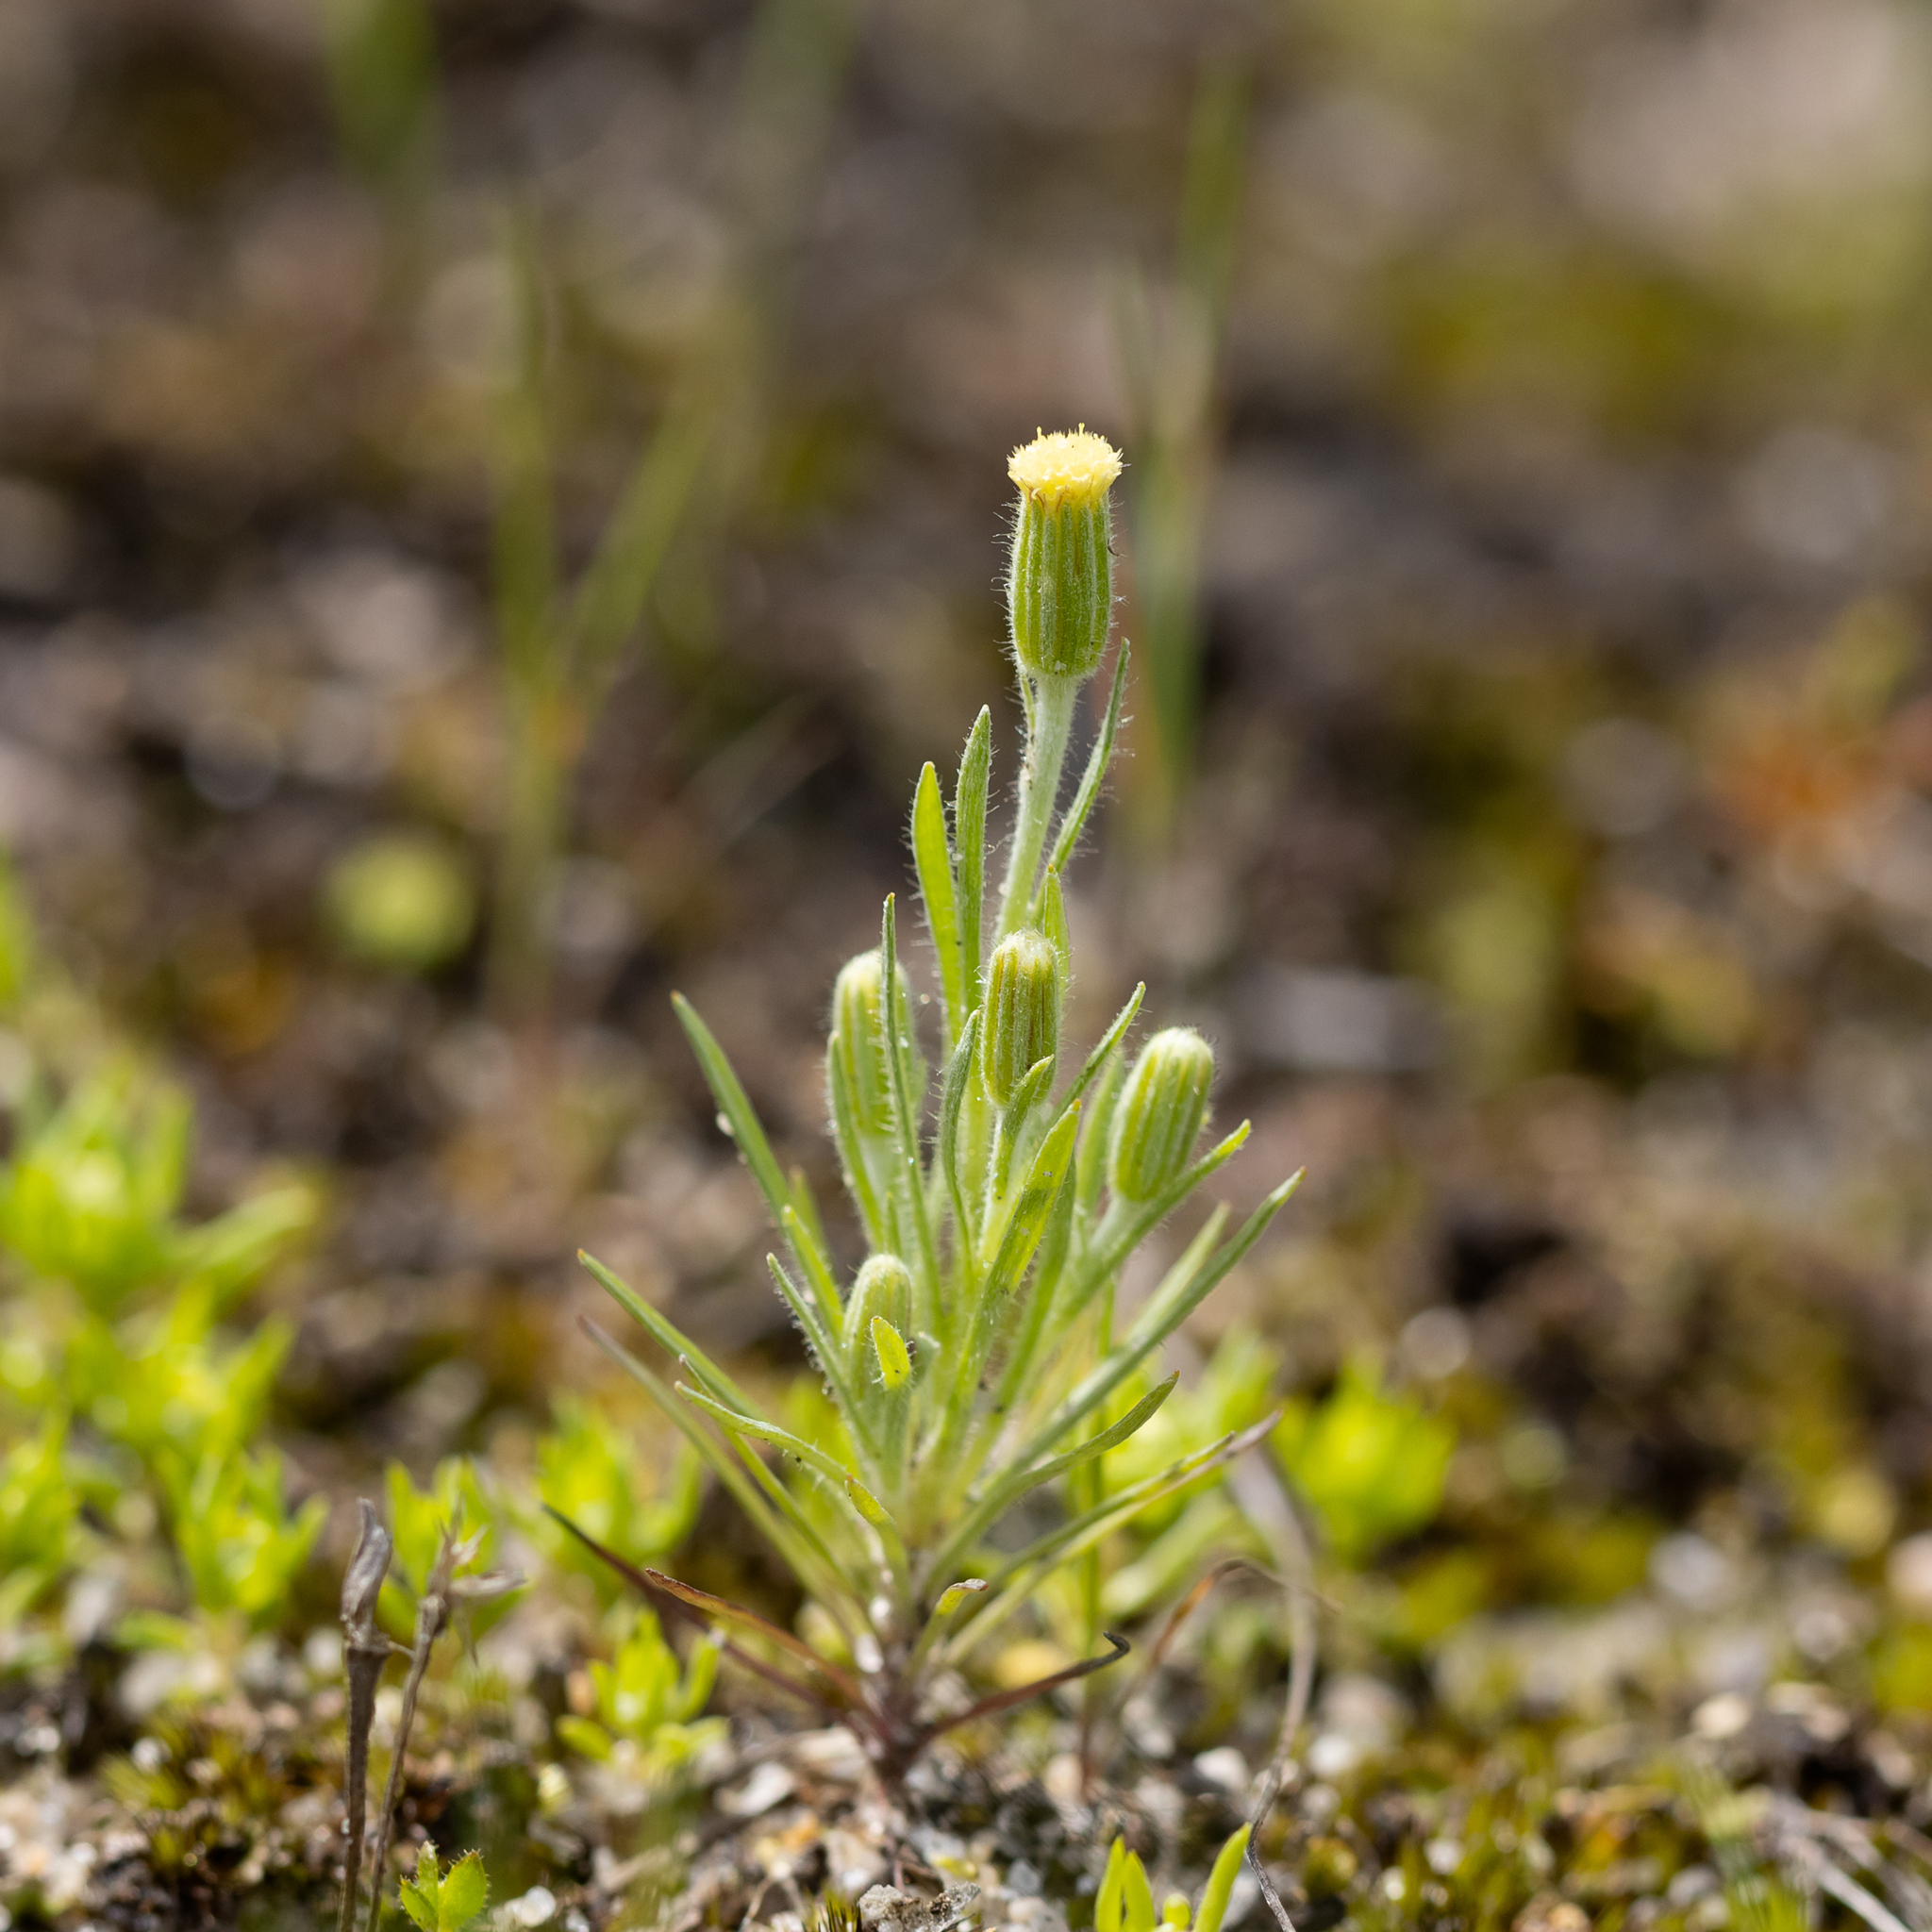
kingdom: Plantae
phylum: Tracheophyta
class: Magnoliopsida
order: Asterales
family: Asteraceae
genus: Millotia
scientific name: Millotia tenuifolia
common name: Soft millotia
